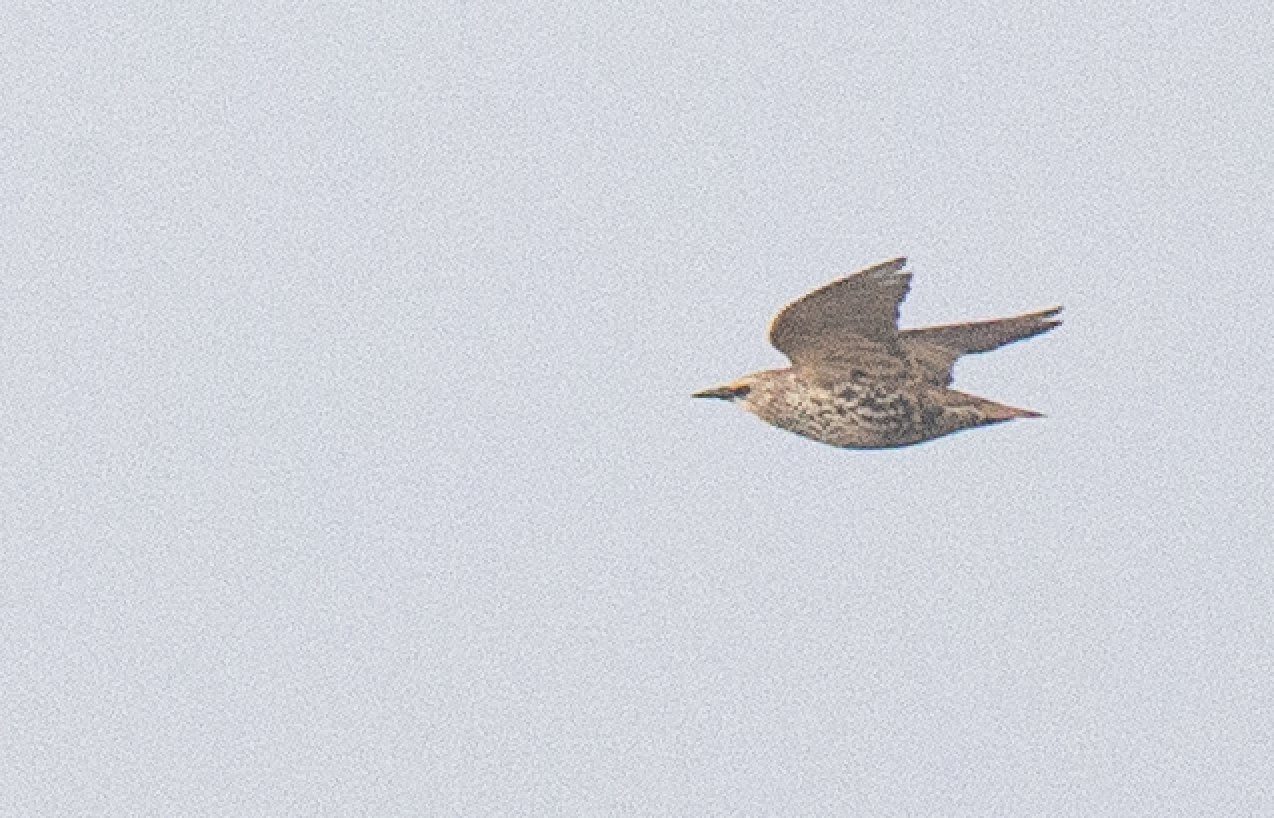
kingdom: Animalia
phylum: Chordata
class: Aves
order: Passeriformes
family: Sturnidae
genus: Sturnus
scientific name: Sturnus vulgaris
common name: Common starling
